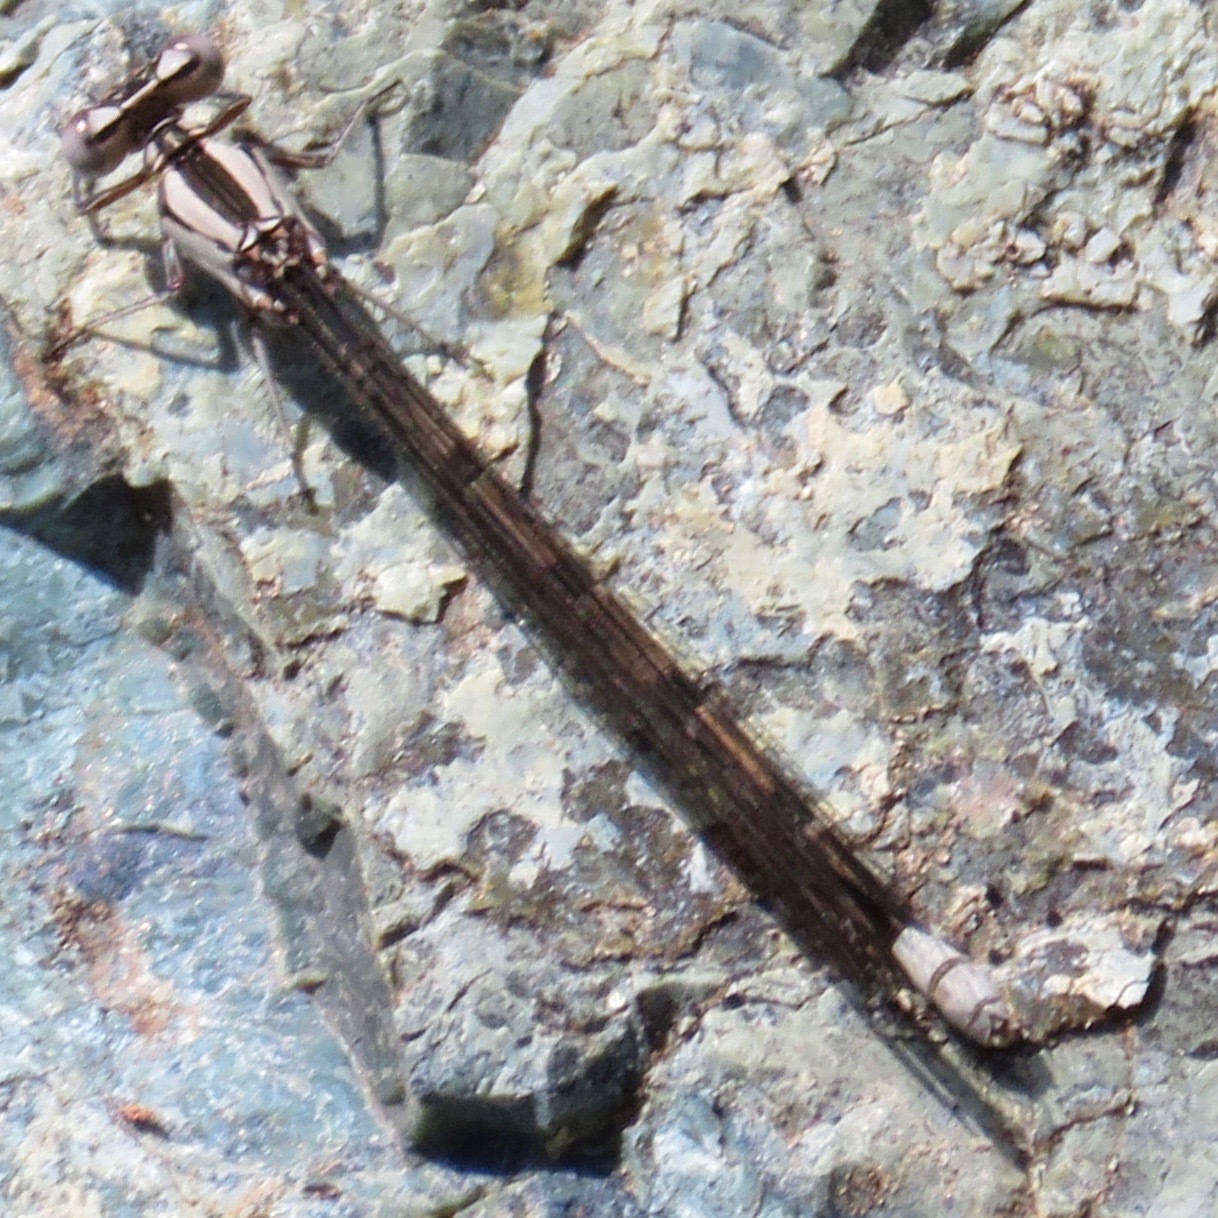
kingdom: Animalia
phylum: Arthropoda
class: Insecta
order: Odonata
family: Coenagrionidae
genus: Argia
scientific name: Argia vivida
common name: Vivid dancer
